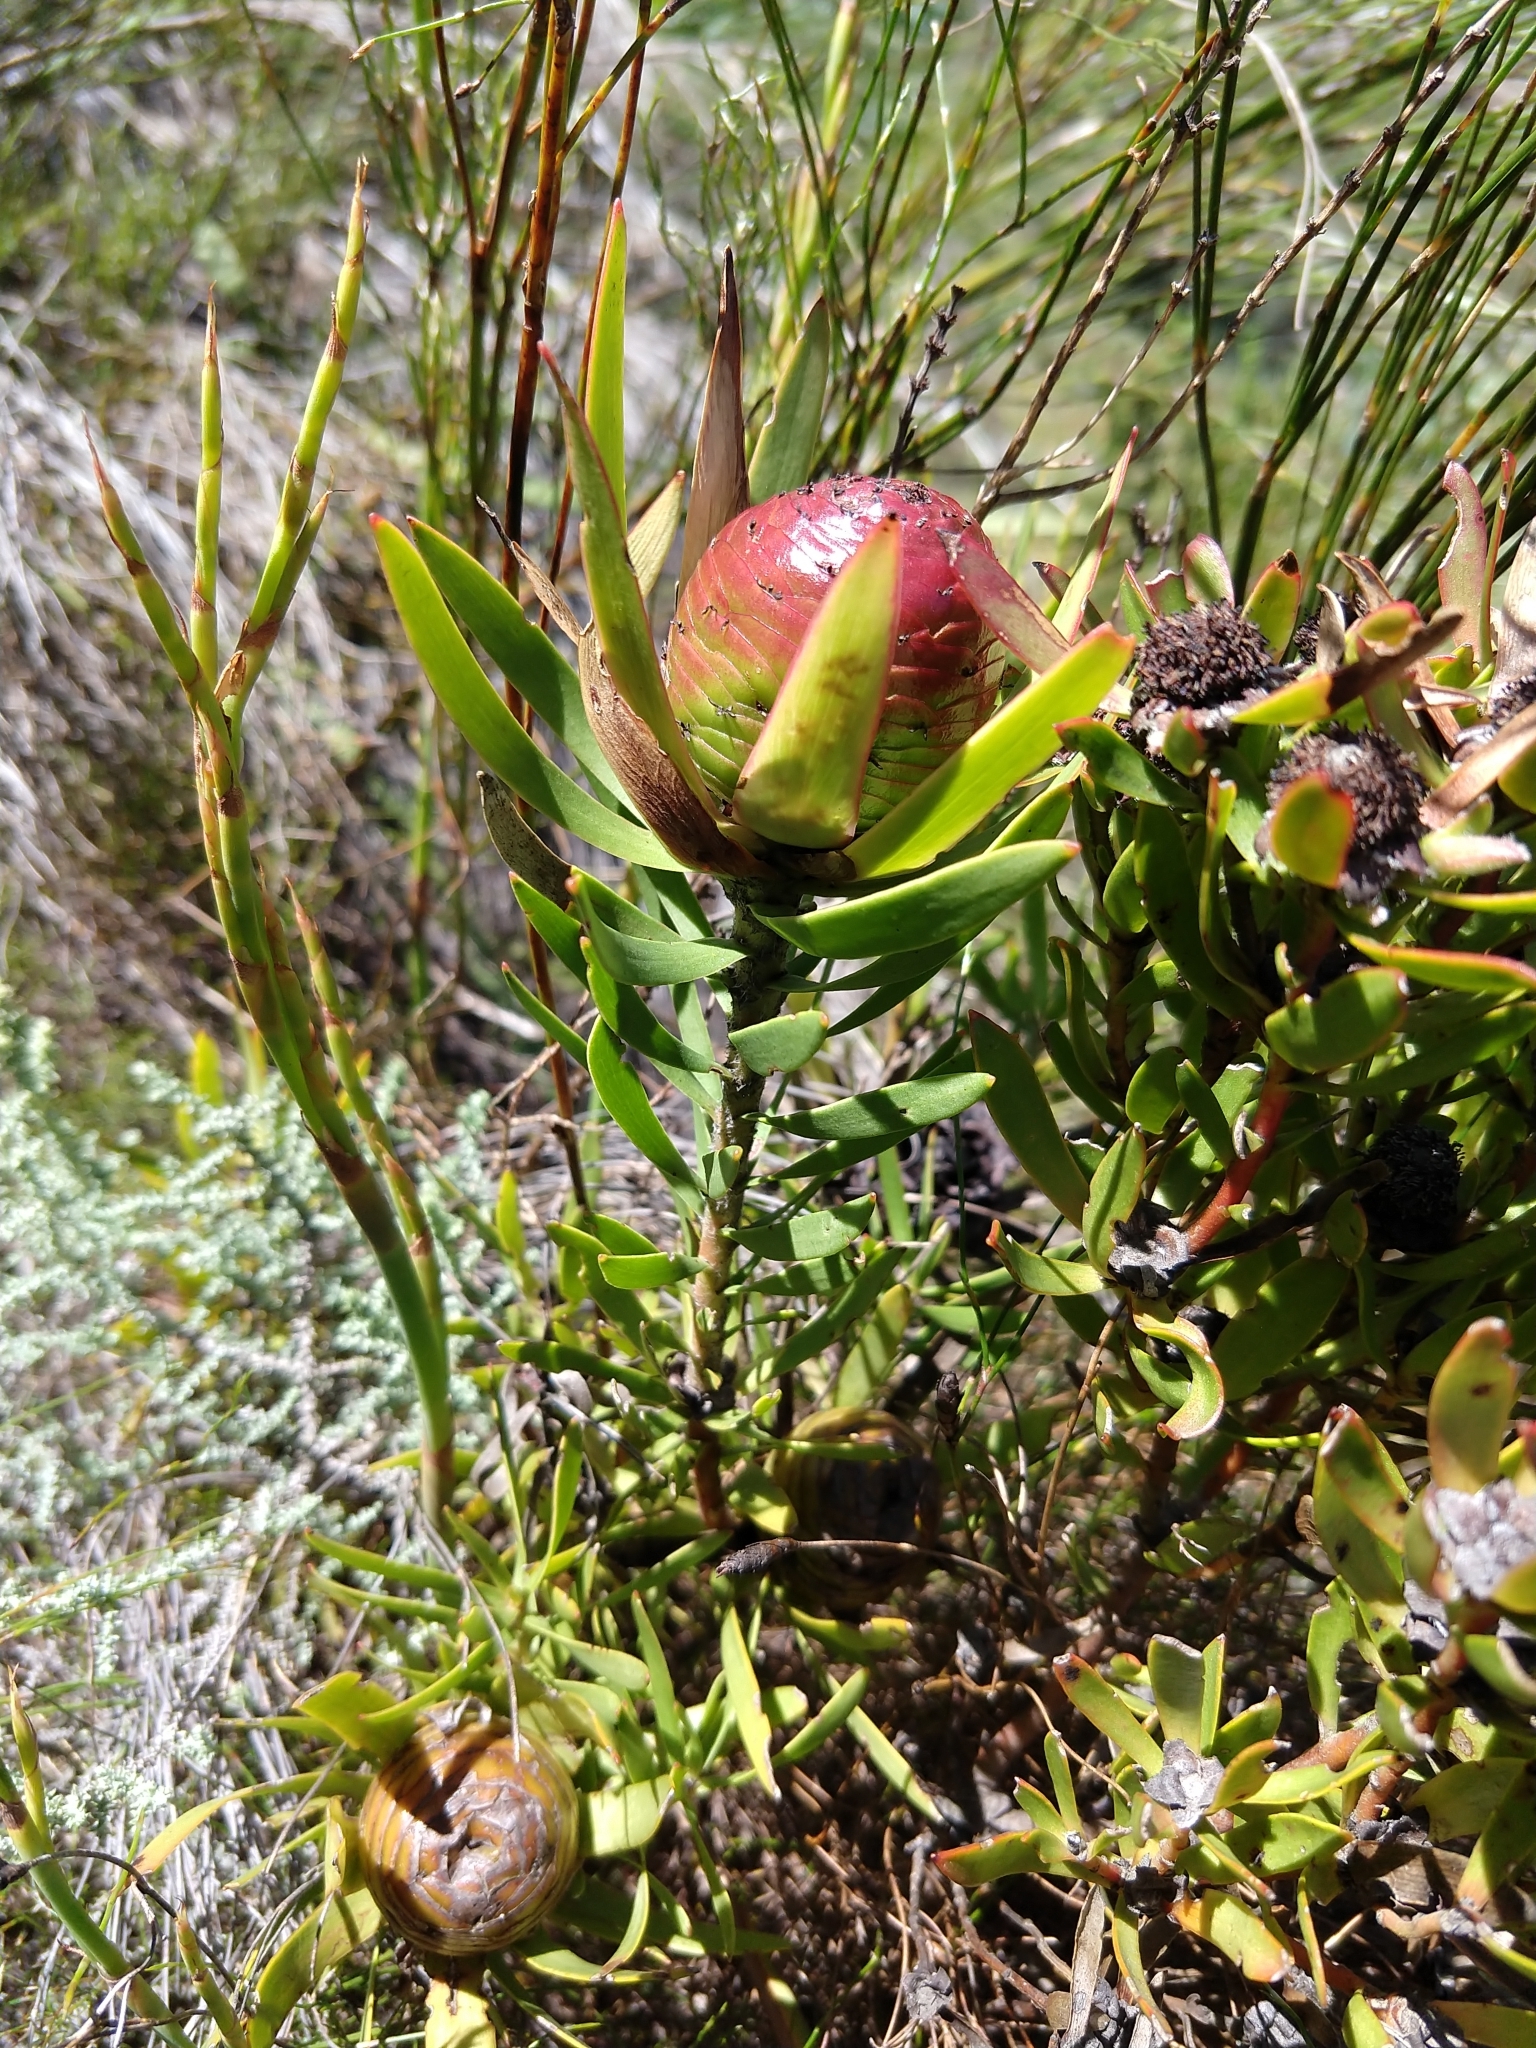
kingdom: Plantae
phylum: Tracheophyta
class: Magnoliopsida
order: Proteales
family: Proteaceae
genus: Leucadendron
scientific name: Leucadendron spissifolium
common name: Spear-leaf conebush
